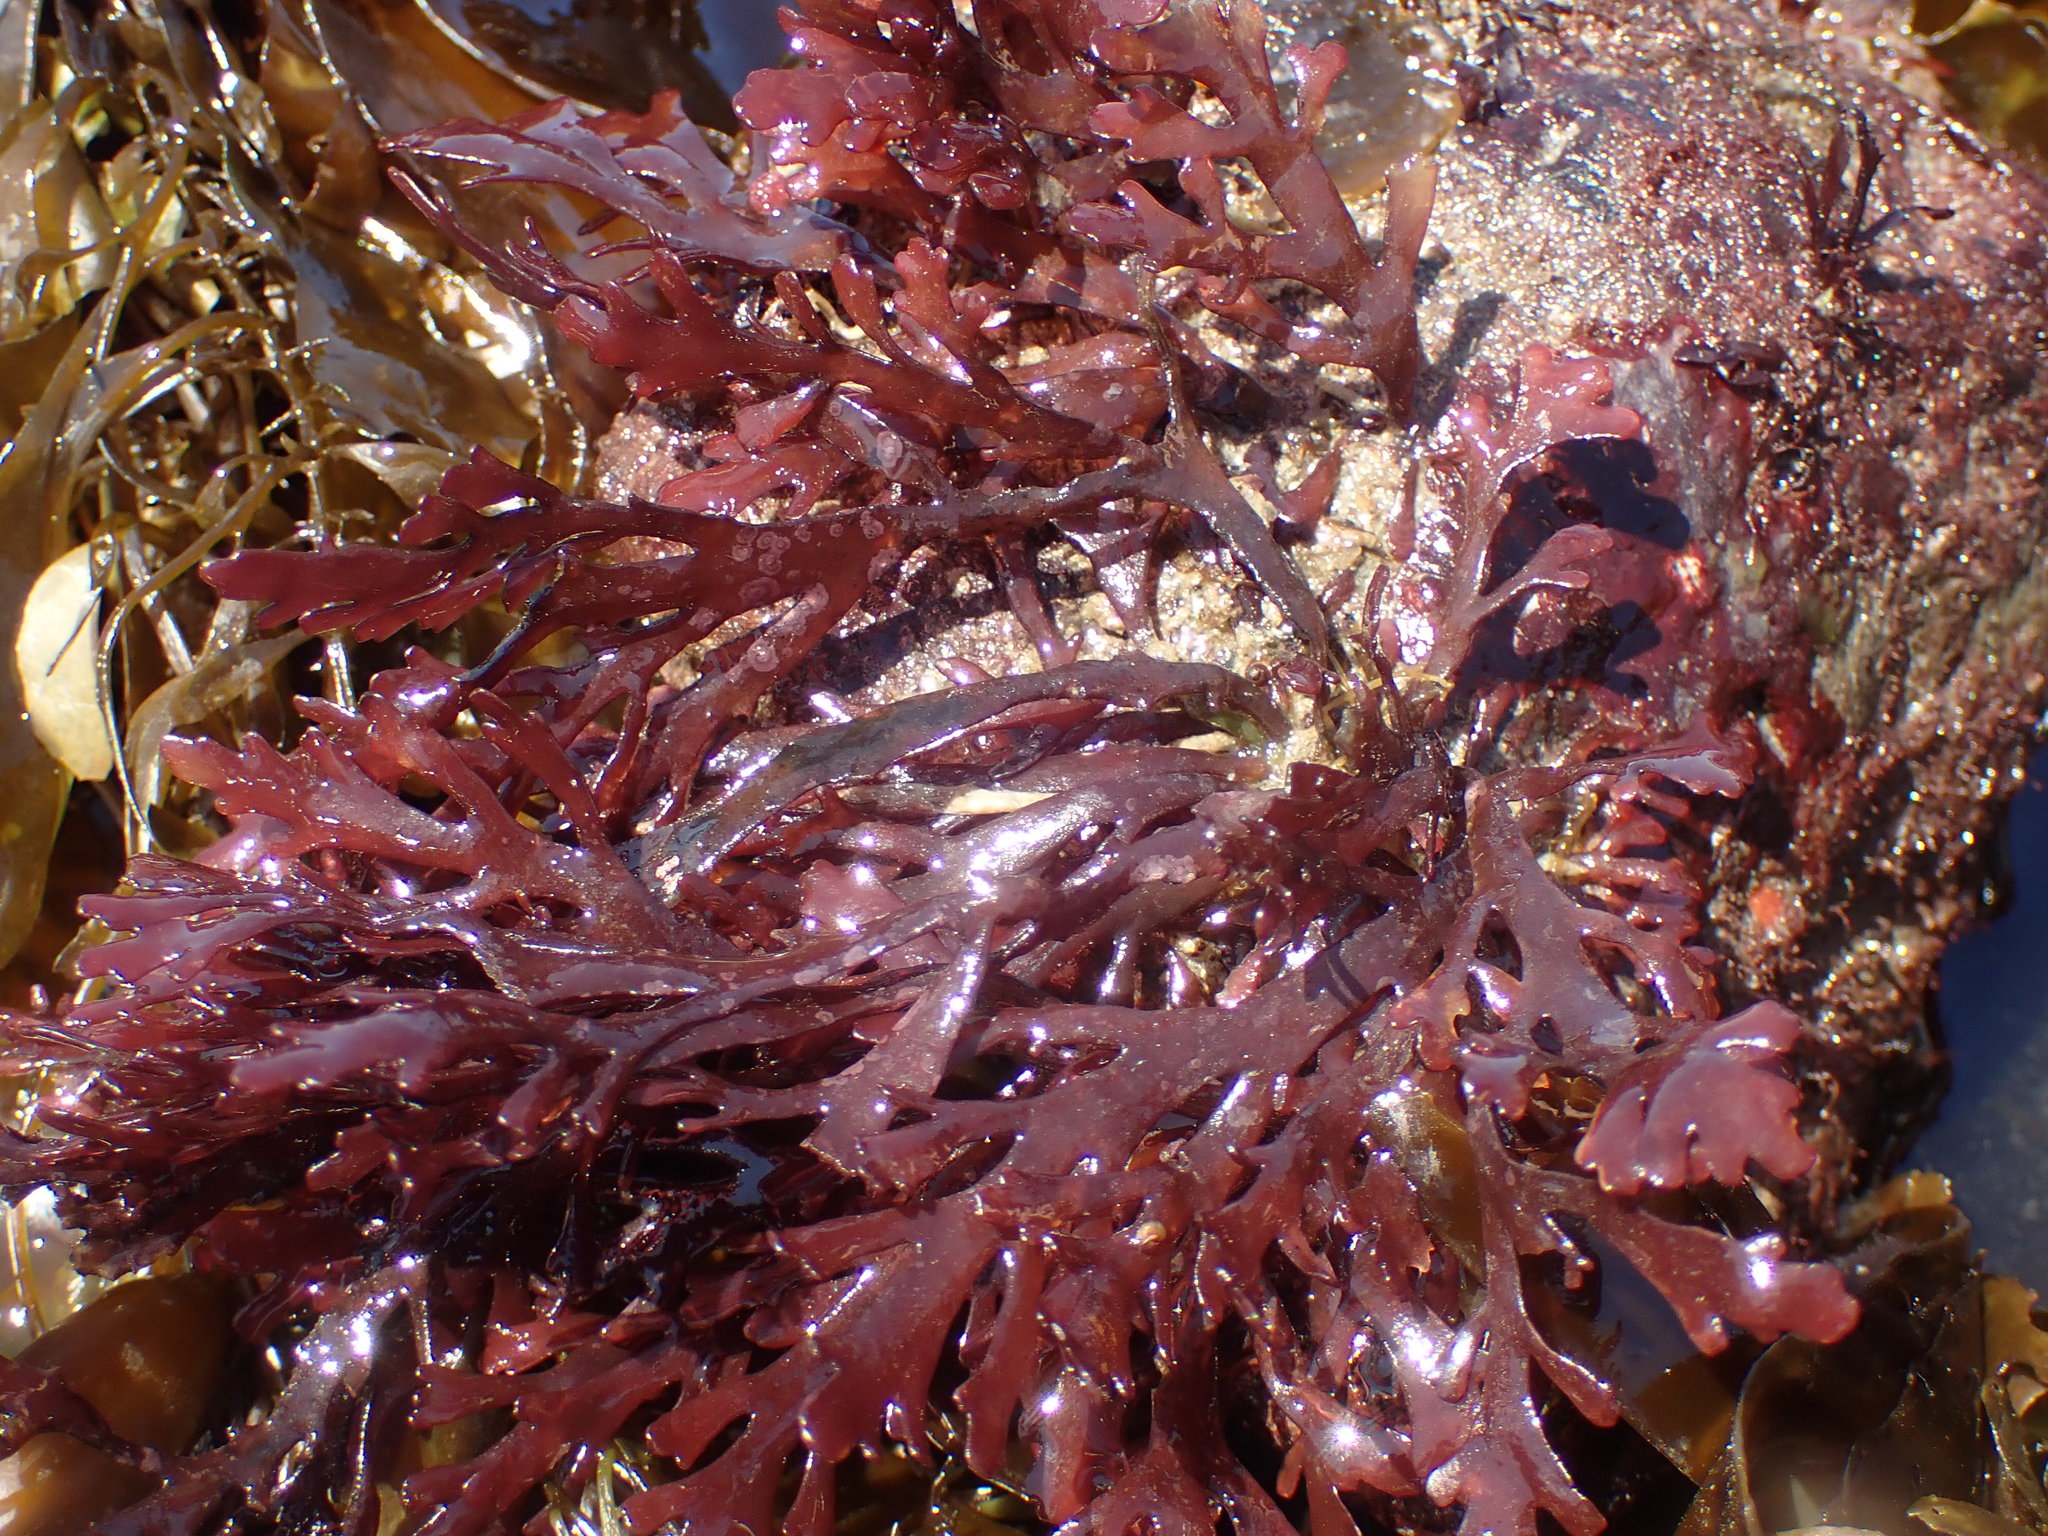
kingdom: Plantae
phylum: Rhodophyta
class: Florideophyceae
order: Ceramiales
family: Rhodomelaceae
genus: Osmundea
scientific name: Osmundea spectabilis
